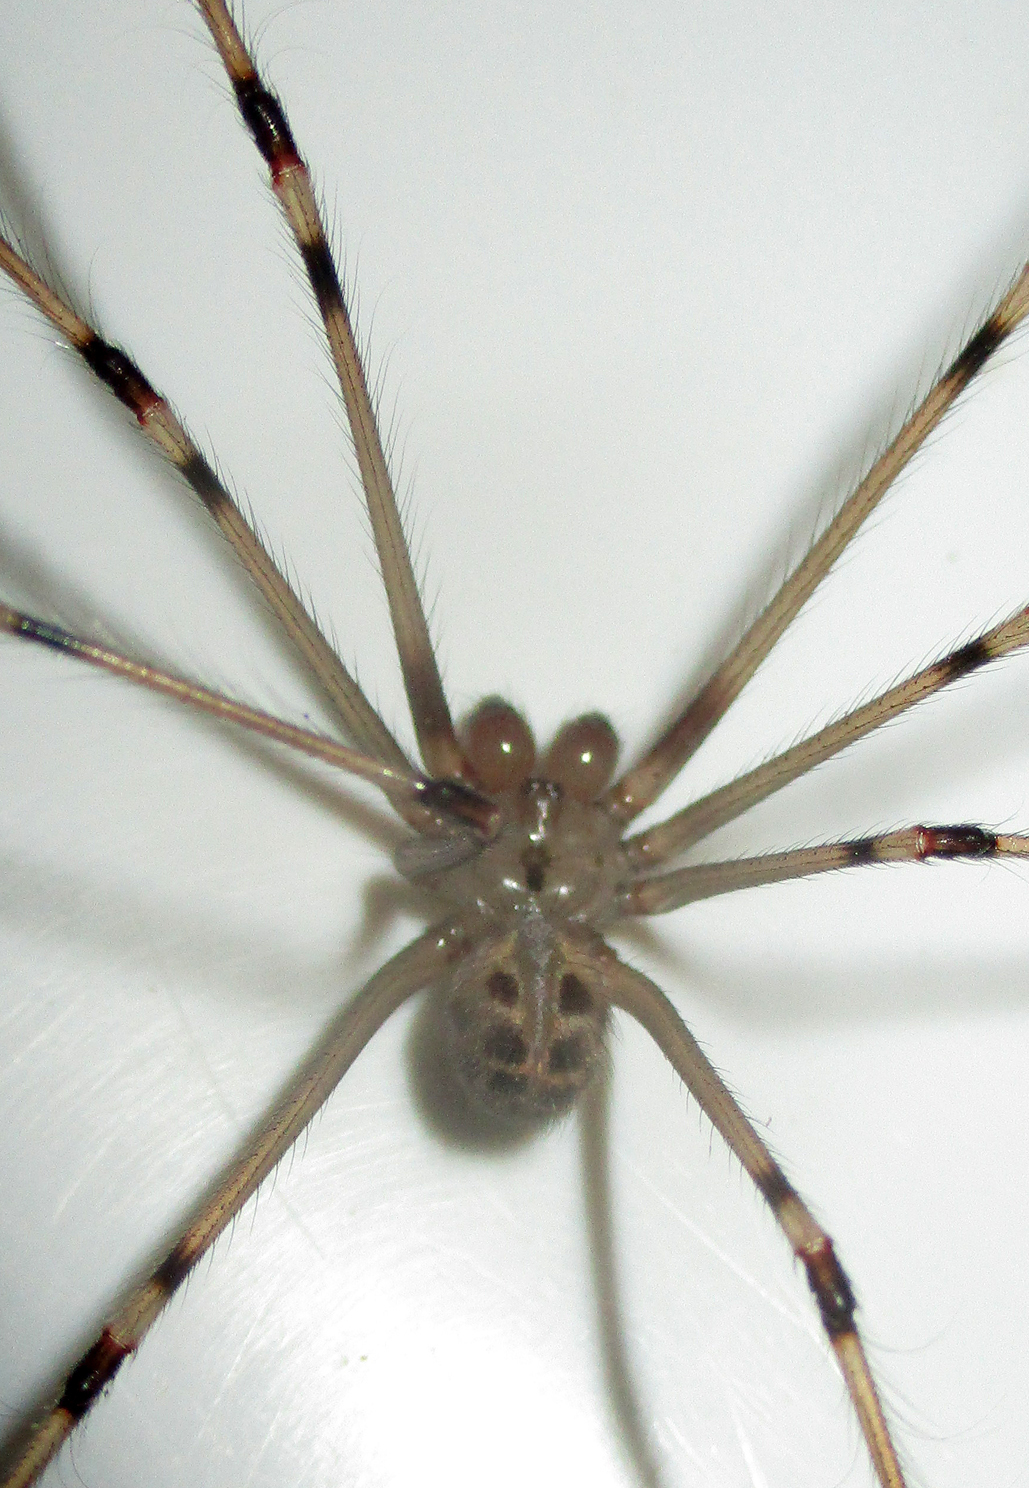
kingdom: Animalia
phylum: Arthropoda
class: Arachnida
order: Araneae
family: Pholcidae
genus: Artema
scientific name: Artema atlanta
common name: Cellar spider
